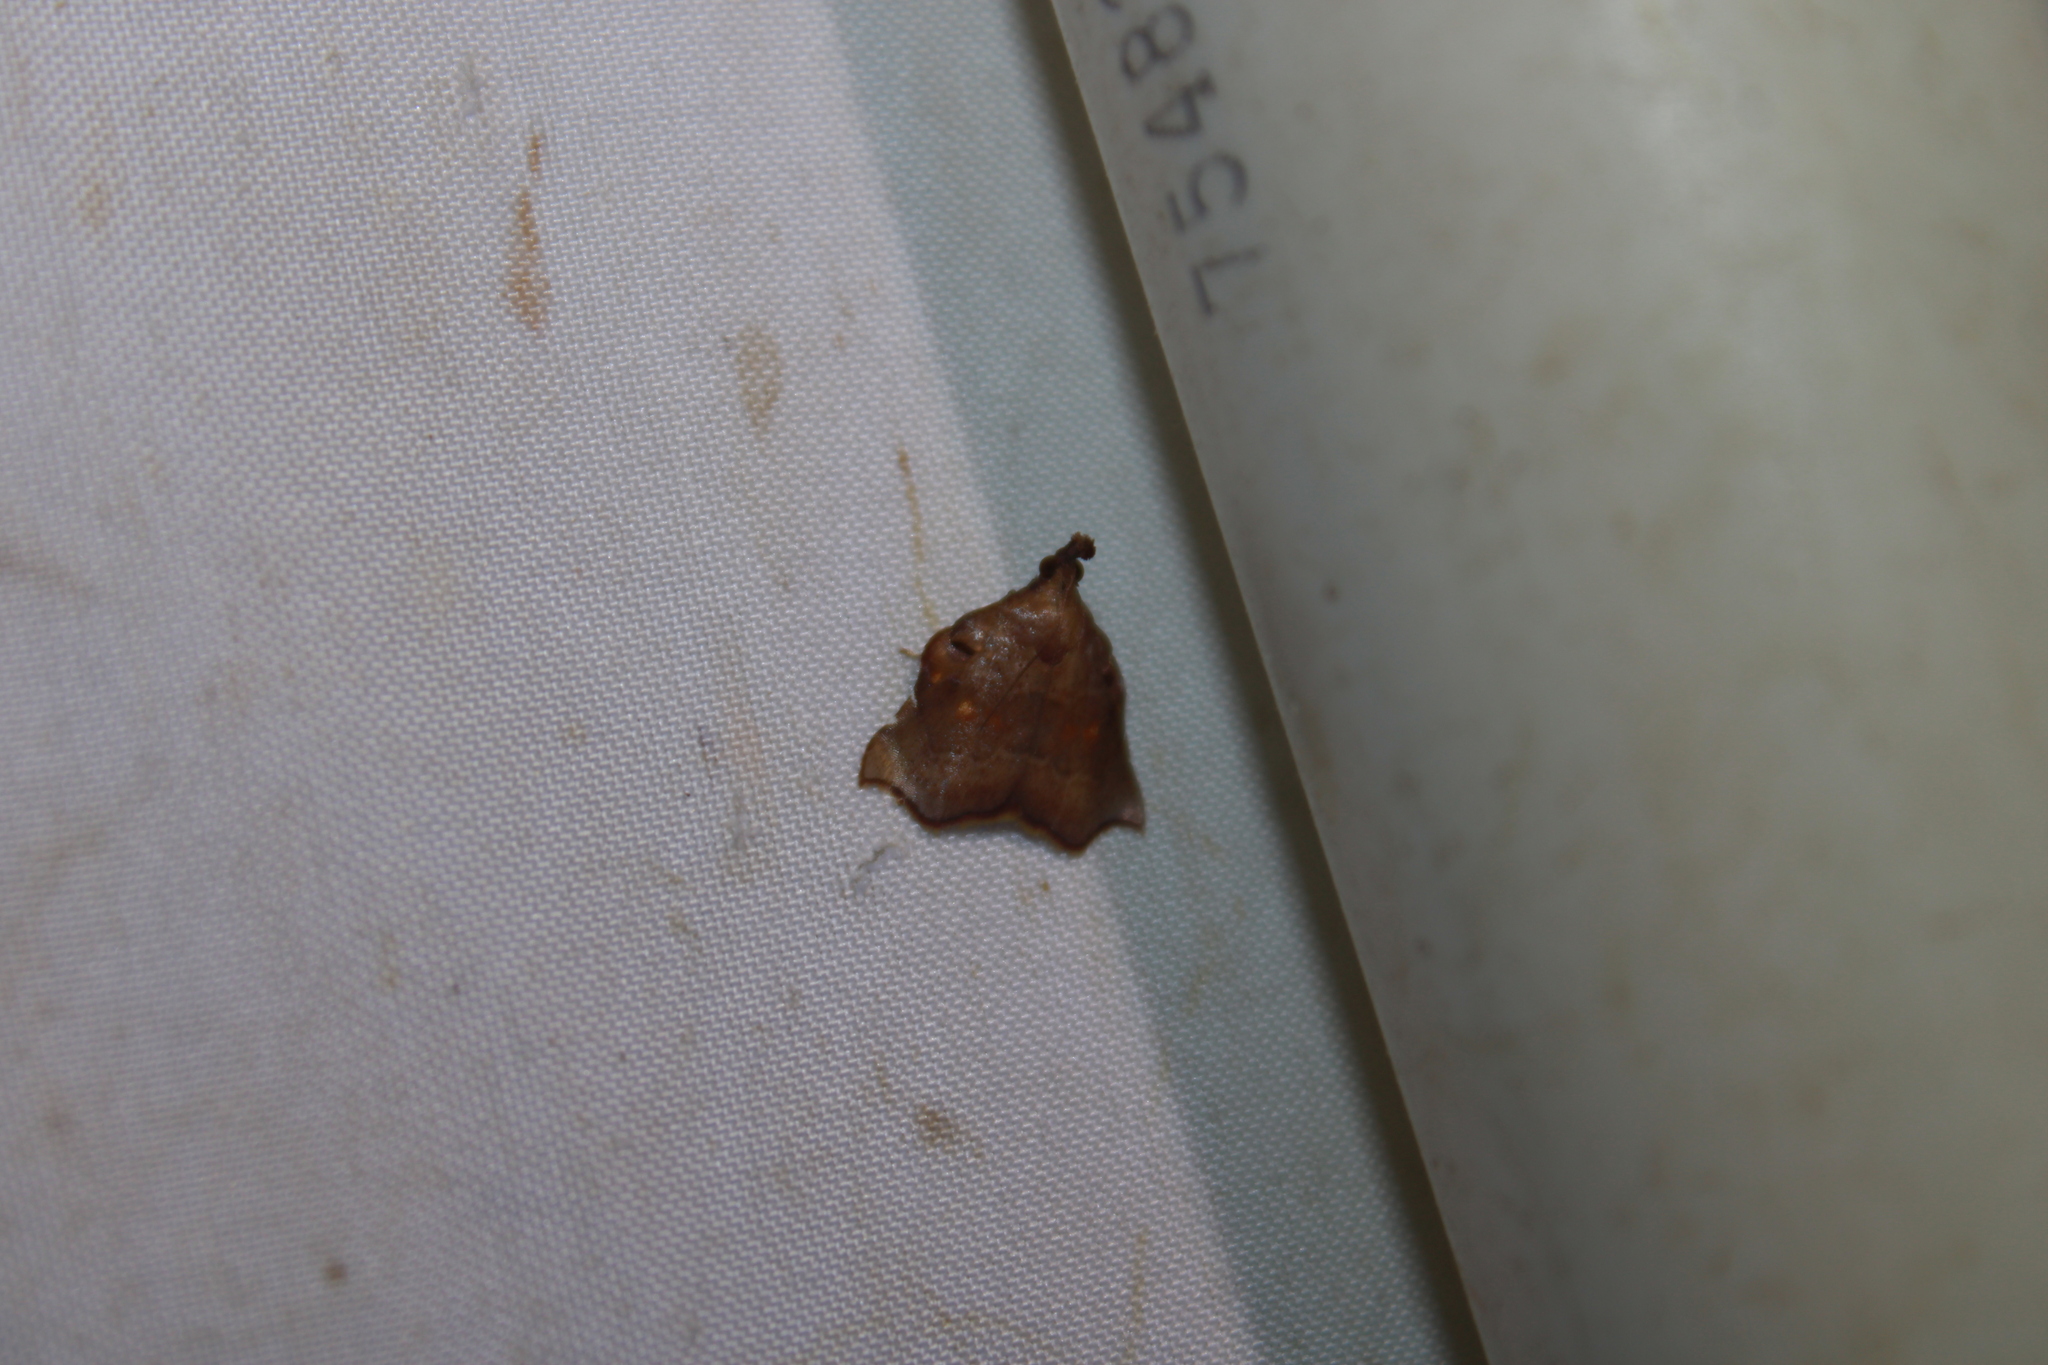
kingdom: Animalia
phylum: Arthropoda
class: Insecta
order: Lepidoptera
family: Pyralidae
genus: Salobrena
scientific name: Salobrena recurvata
